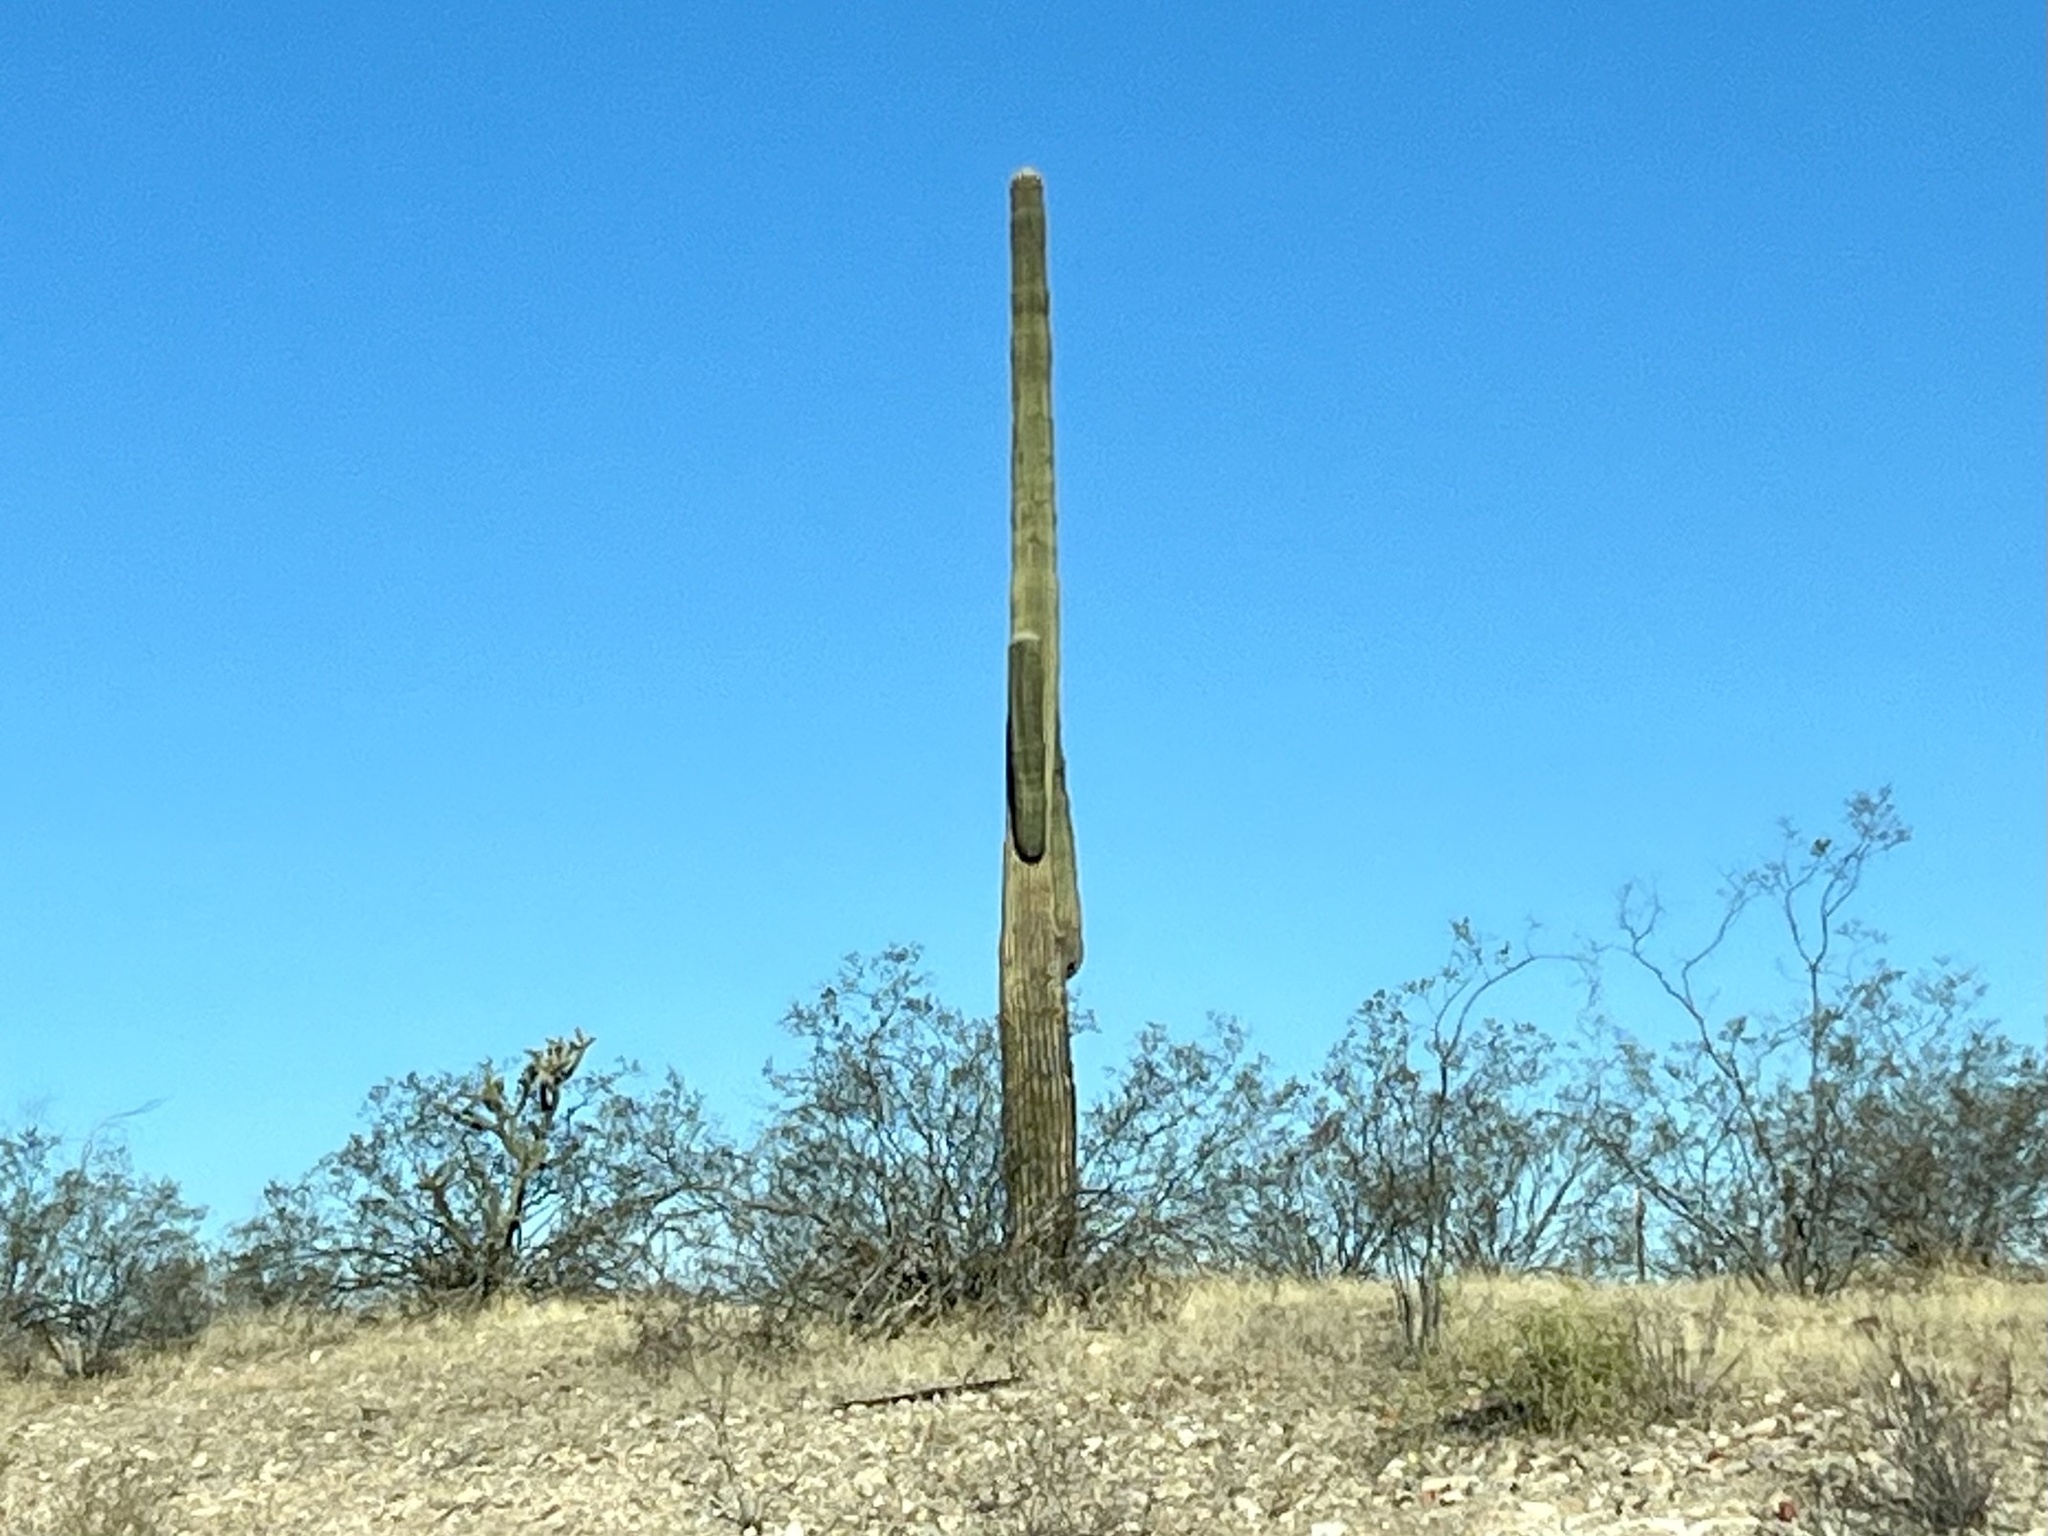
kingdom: Plantae
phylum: Tracheophyta
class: Magnoliopsida
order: Caryophyllales
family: Cactaceae
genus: Carnegiea
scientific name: Carnegiea gigantea
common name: Saguaro
